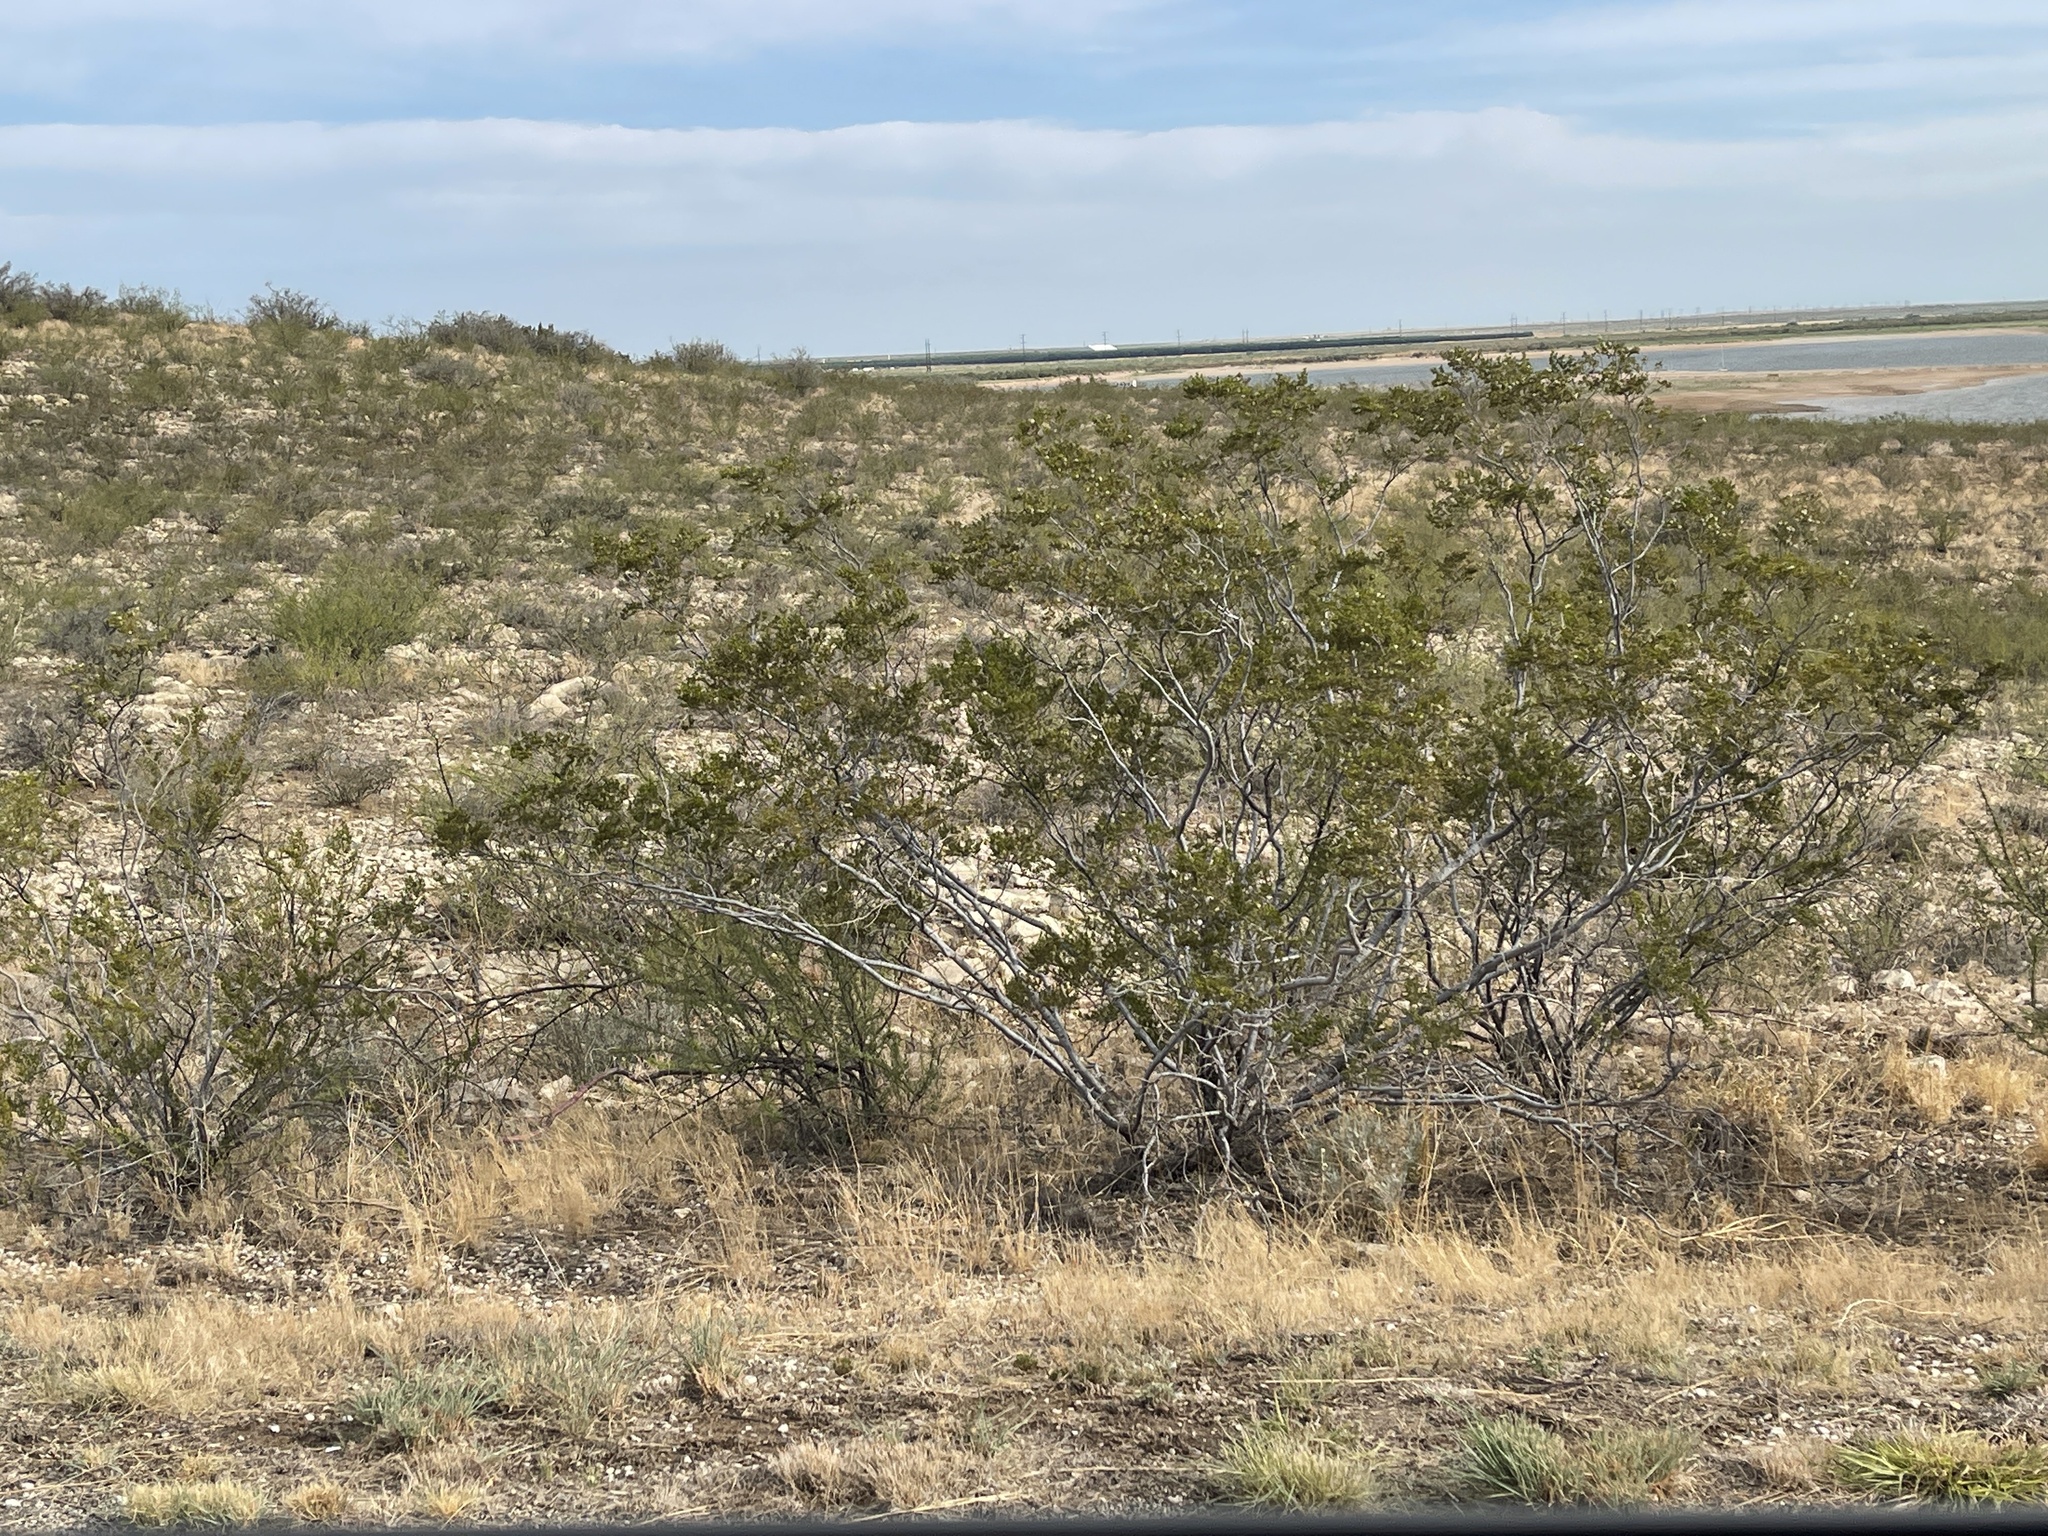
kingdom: Plantae
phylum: Tracheophyta
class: Magnoliopsida
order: Zygophyllales
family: Zygophyllaceae
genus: Larrea
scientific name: Larrea tridentata
